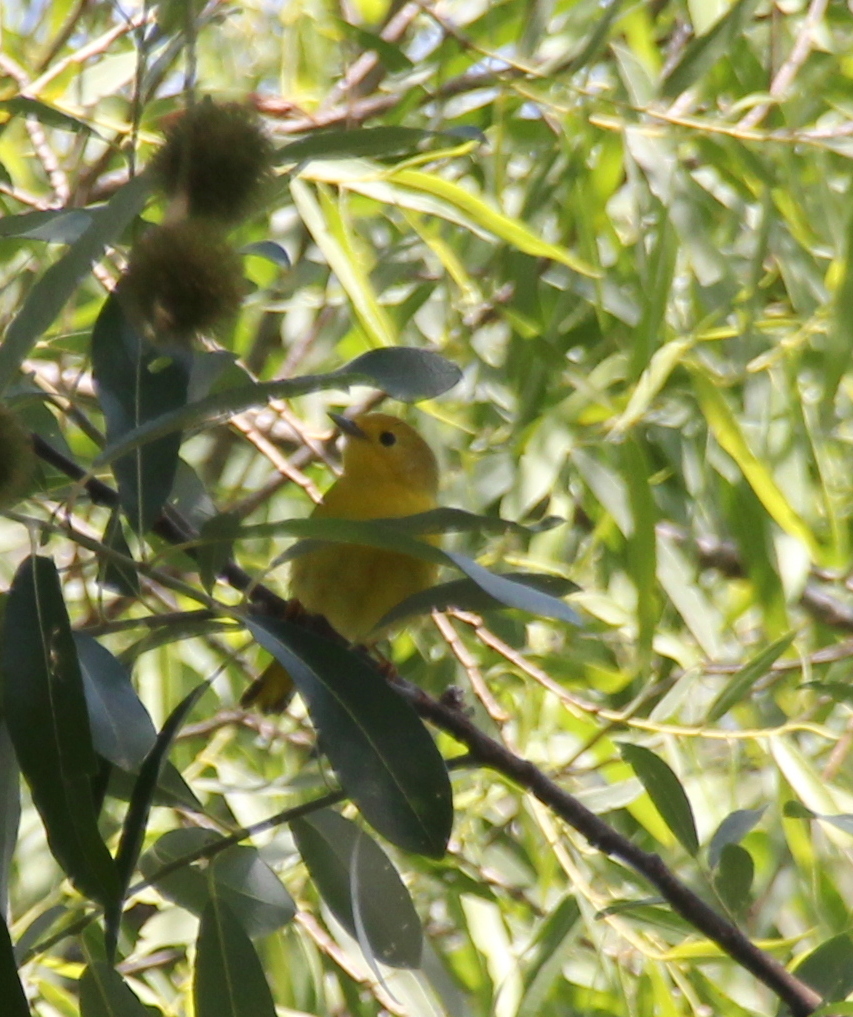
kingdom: Animalia
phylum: Chordata
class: Aves
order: Passeriformes
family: Parulidae
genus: Setophaga
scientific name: Setophaga petechia
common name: Yellow warbler
